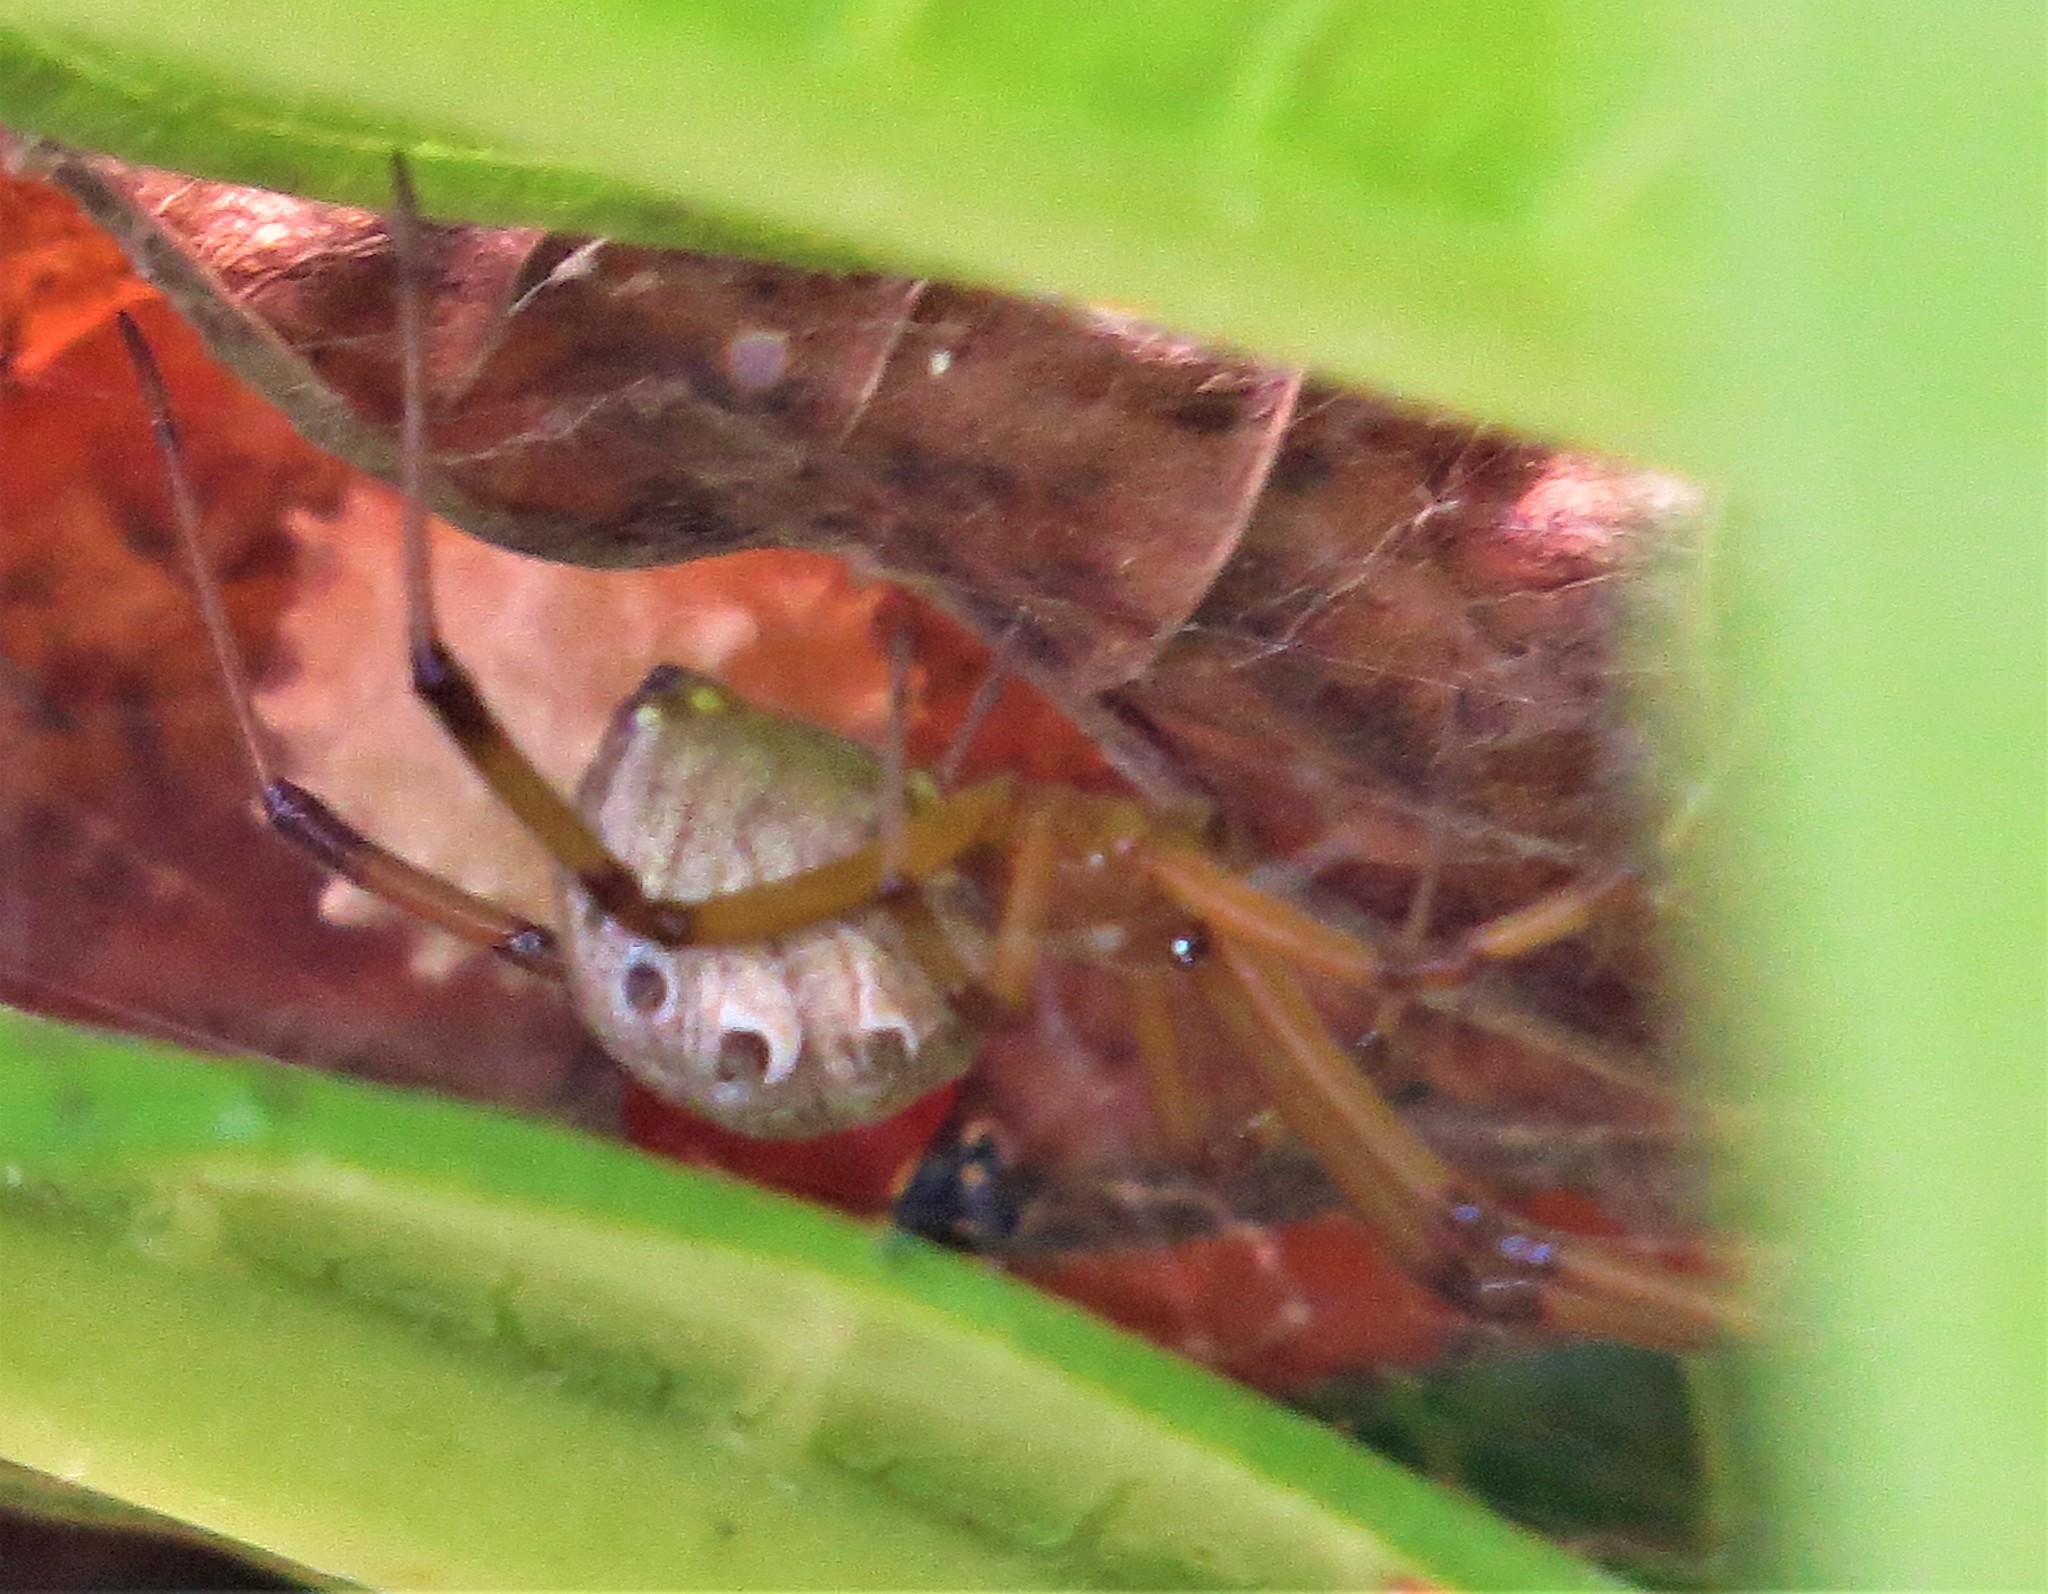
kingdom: Animalia
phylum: Arthropoda
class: Arachnida
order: Araneae
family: Theridiidae
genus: Latrodectus
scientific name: Latrodectus geometricus
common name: Brown widow spider
